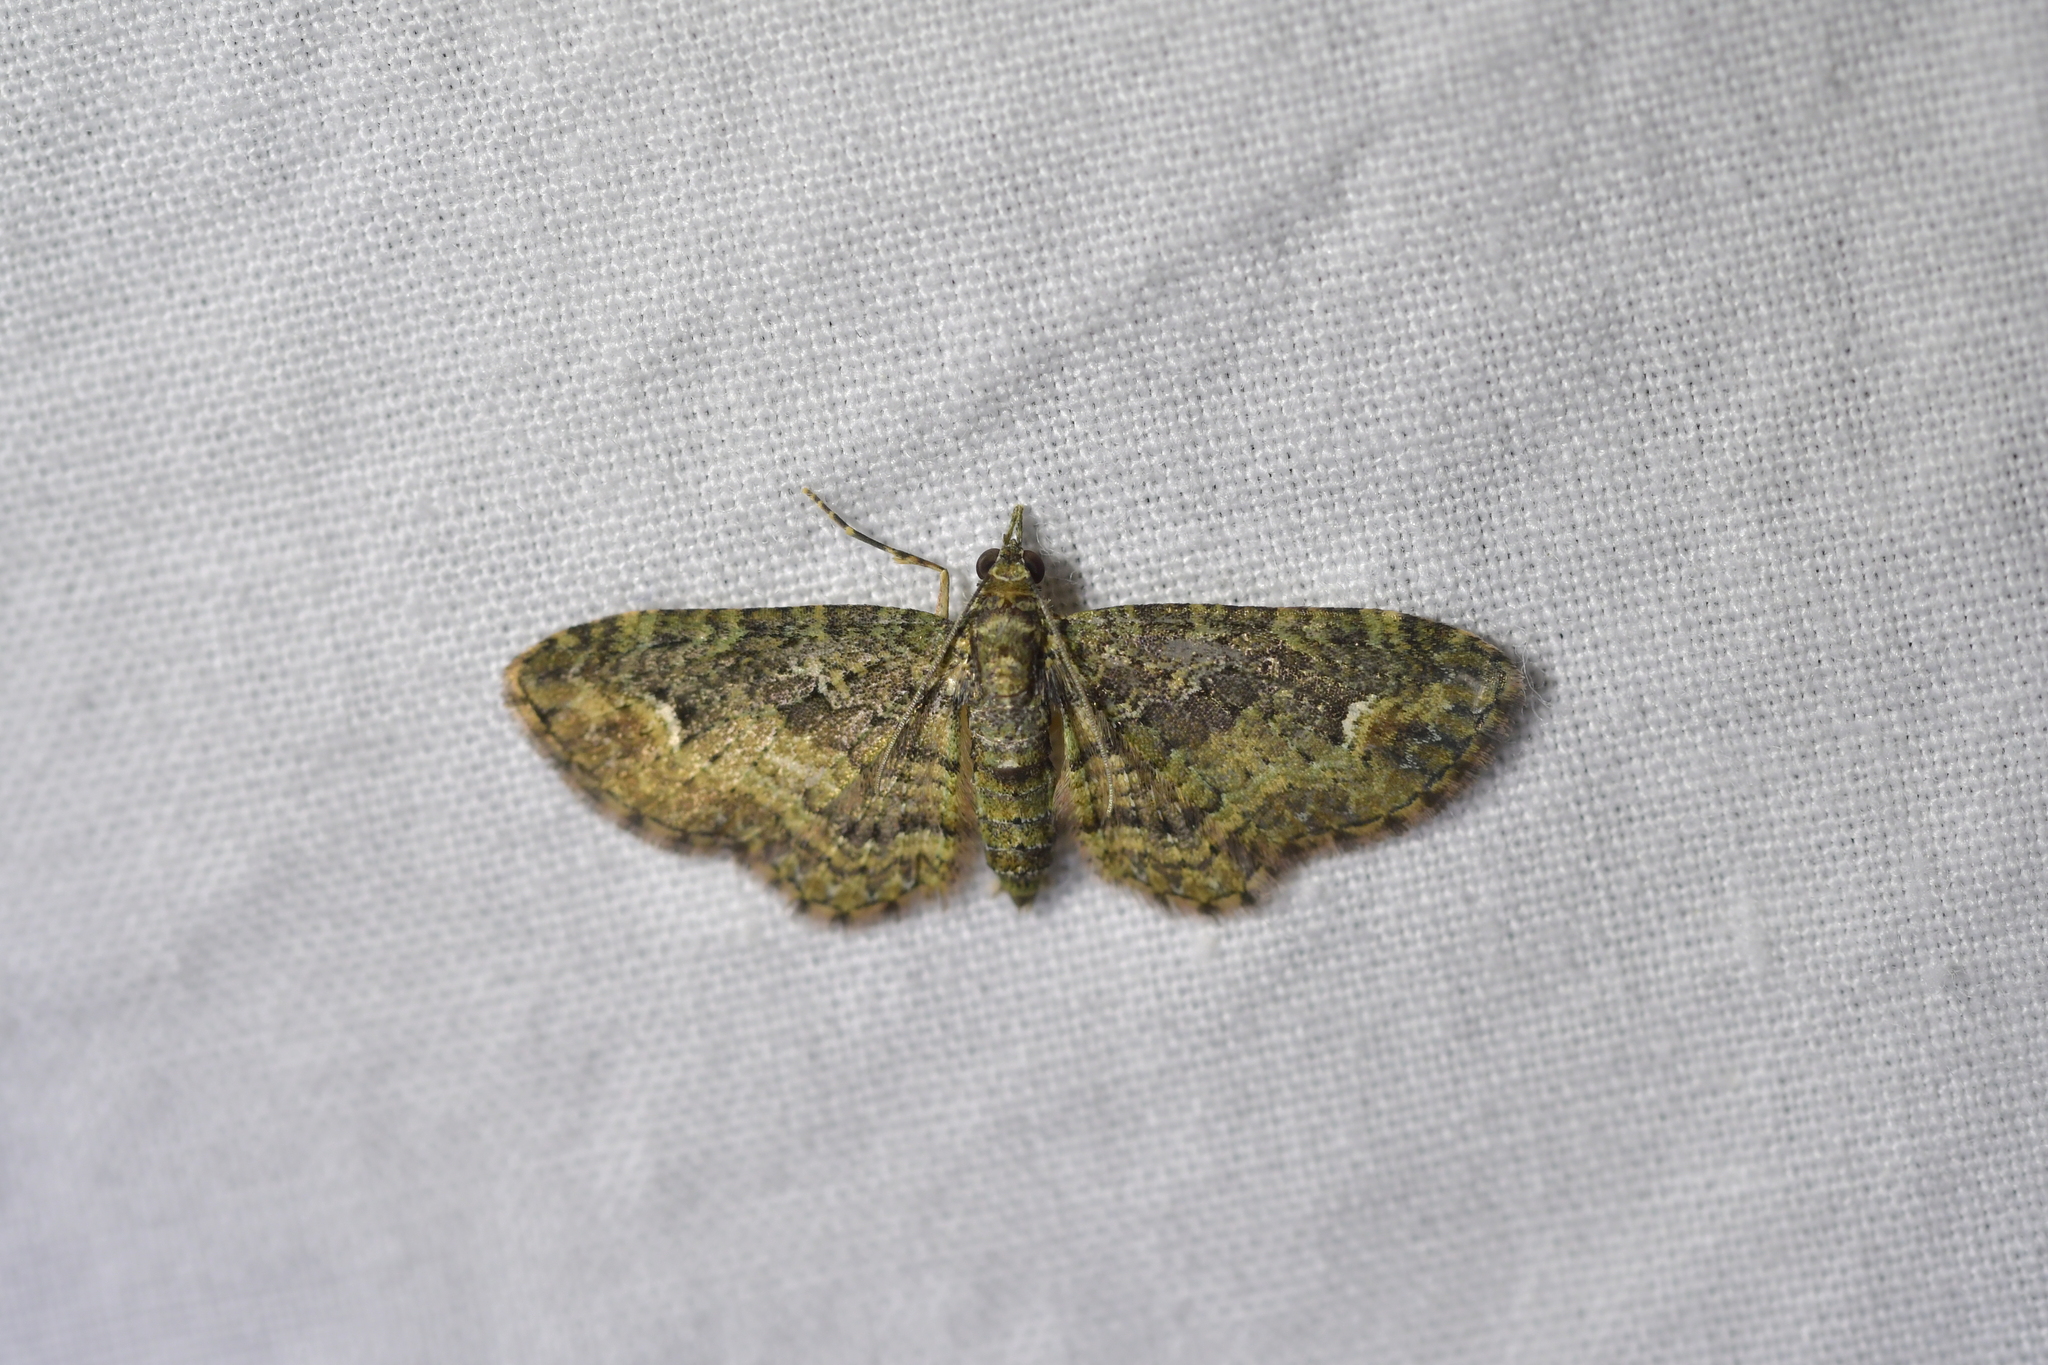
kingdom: Animalia
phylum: Arthropoda
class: Insecta
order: Lepidoptera
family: Geometridae
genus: Pasiphilodes
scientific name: Pasiphilodes testulata
